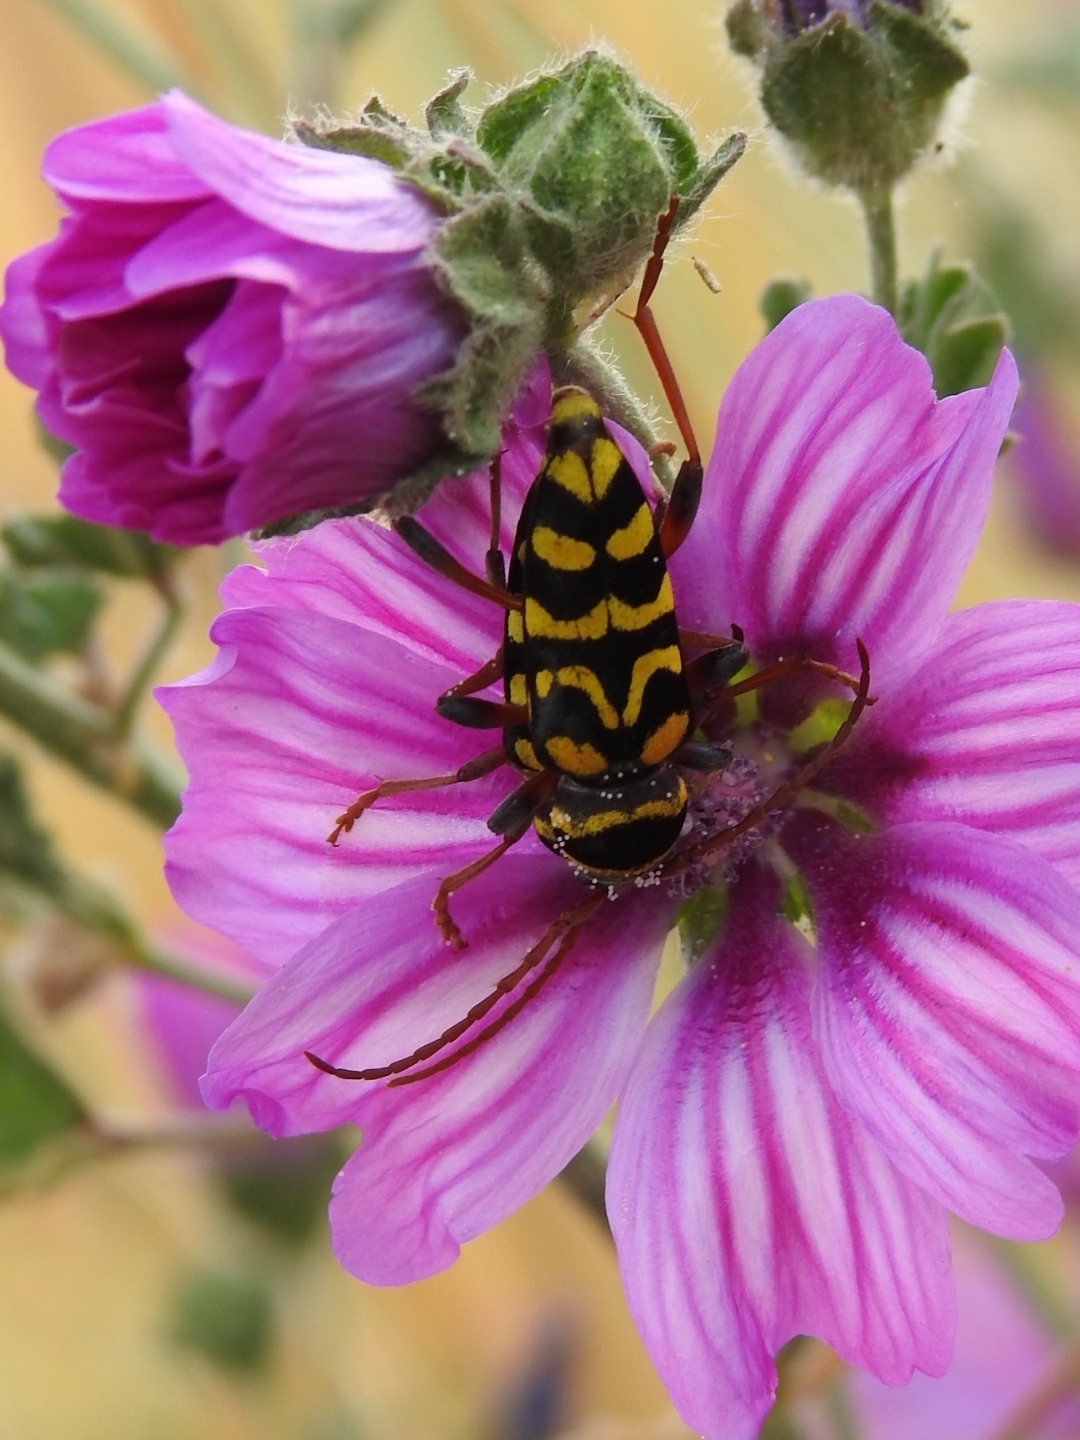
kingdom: Animalia
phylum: Arthropoda
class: Insecta
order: Coleoptera
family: Cerambycidae
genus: Neoplagionotus
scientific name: Neoplagionotus scalaris
